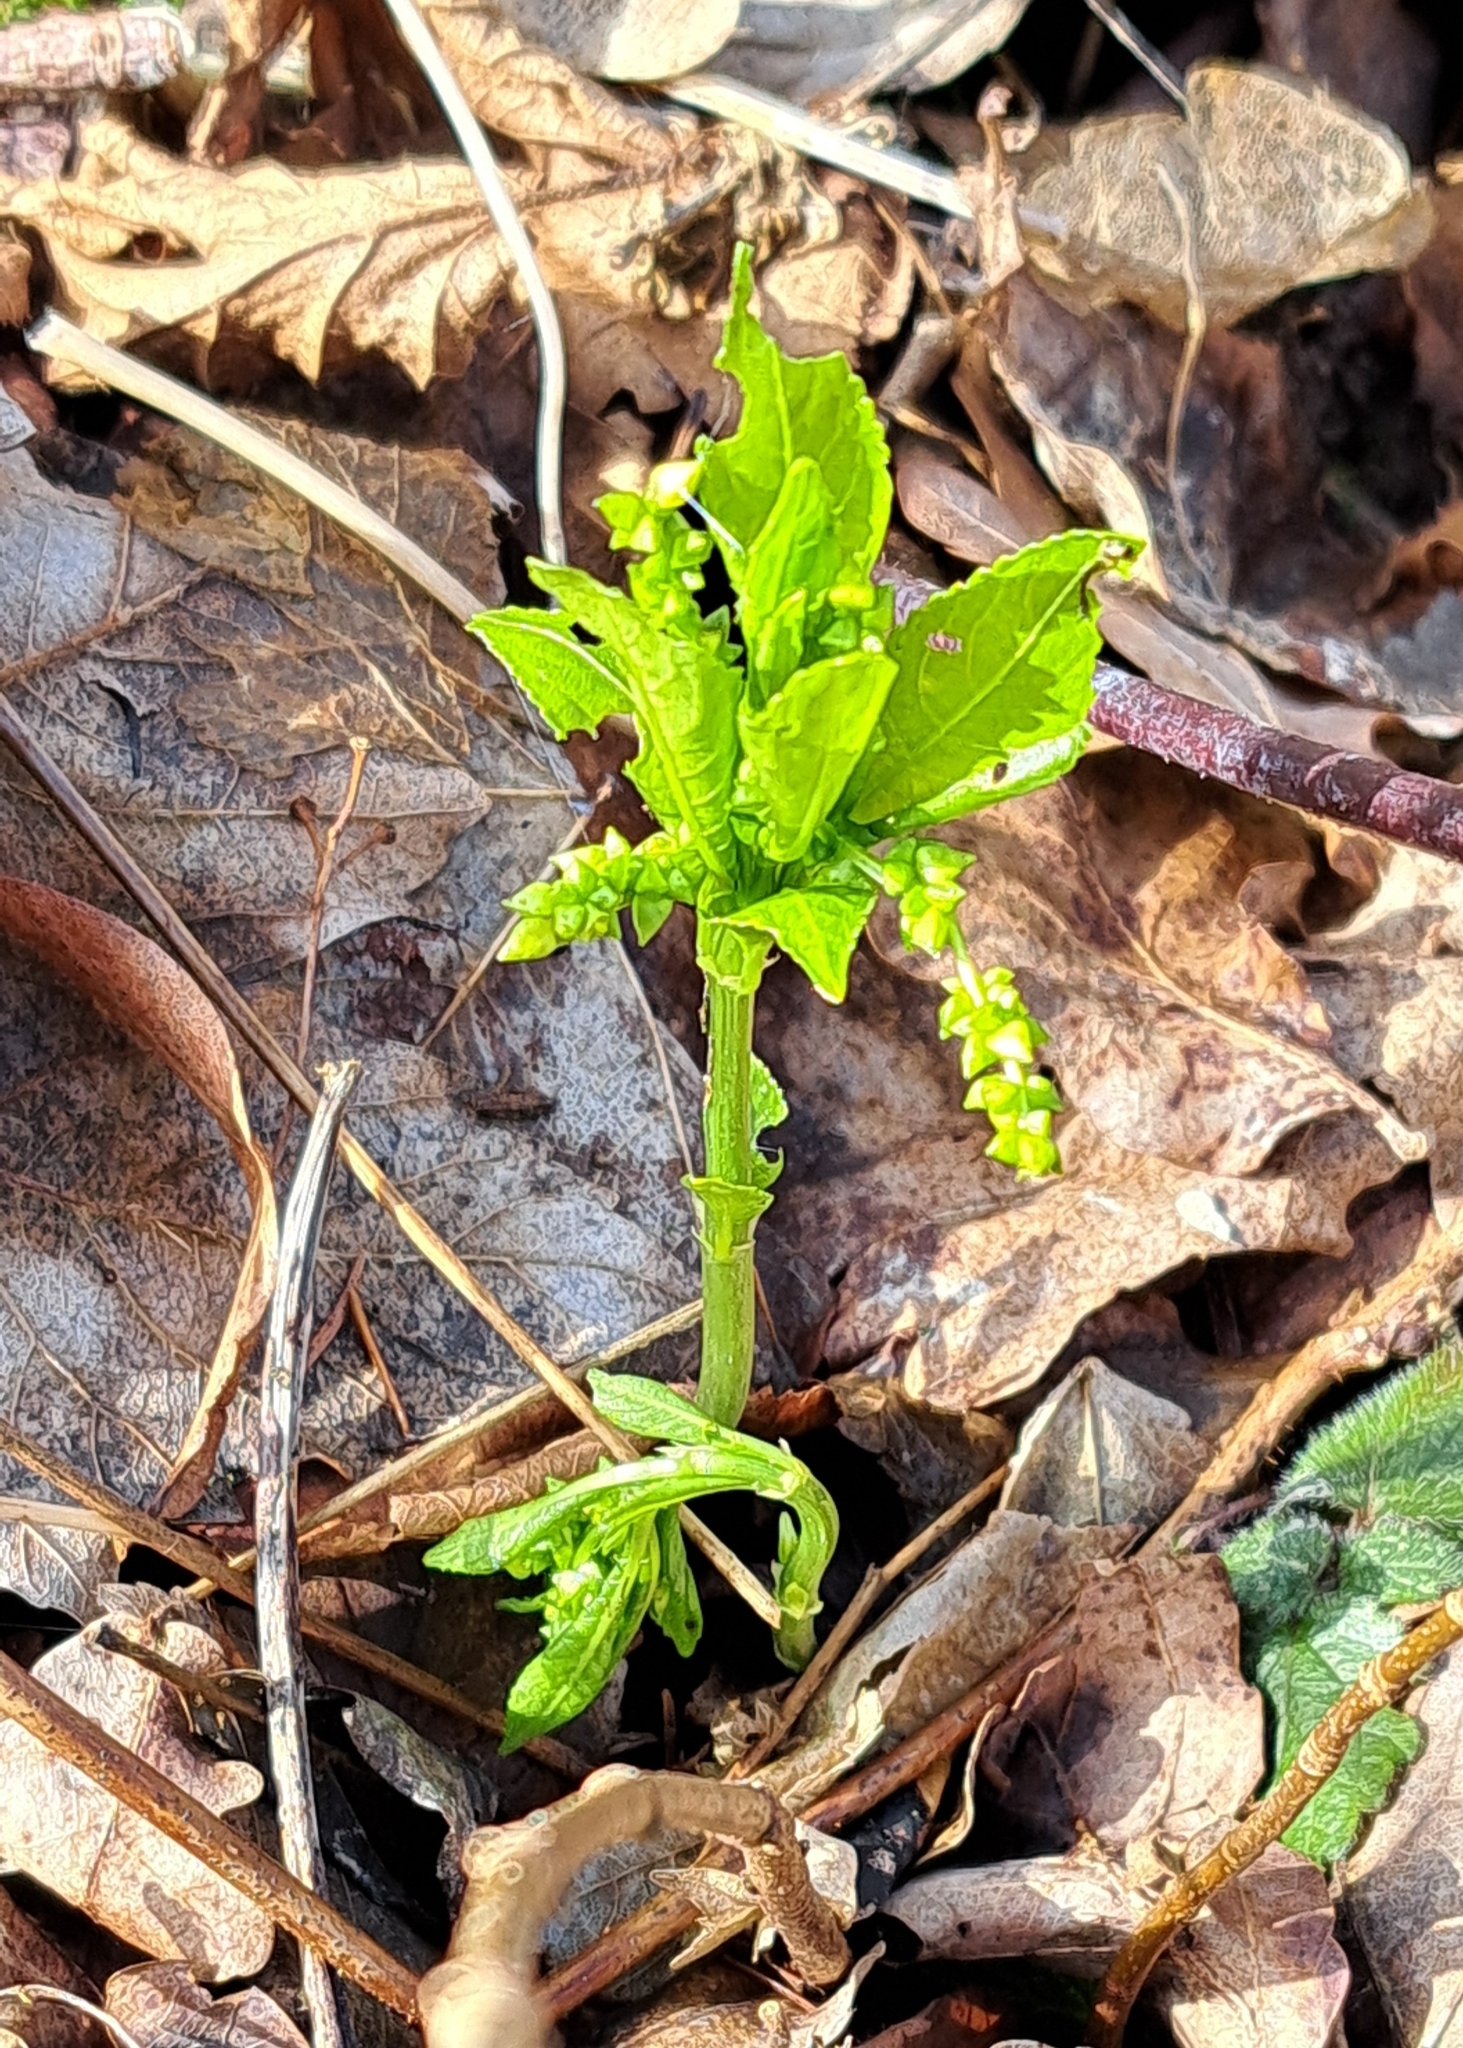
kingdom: Plantae
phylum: Tracheophyta
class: Magnoliopsida
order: Malpighiales
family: Euphorbiaceae
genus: Mercurialis
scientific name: Mercurialis perennis
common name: Dog mercury
